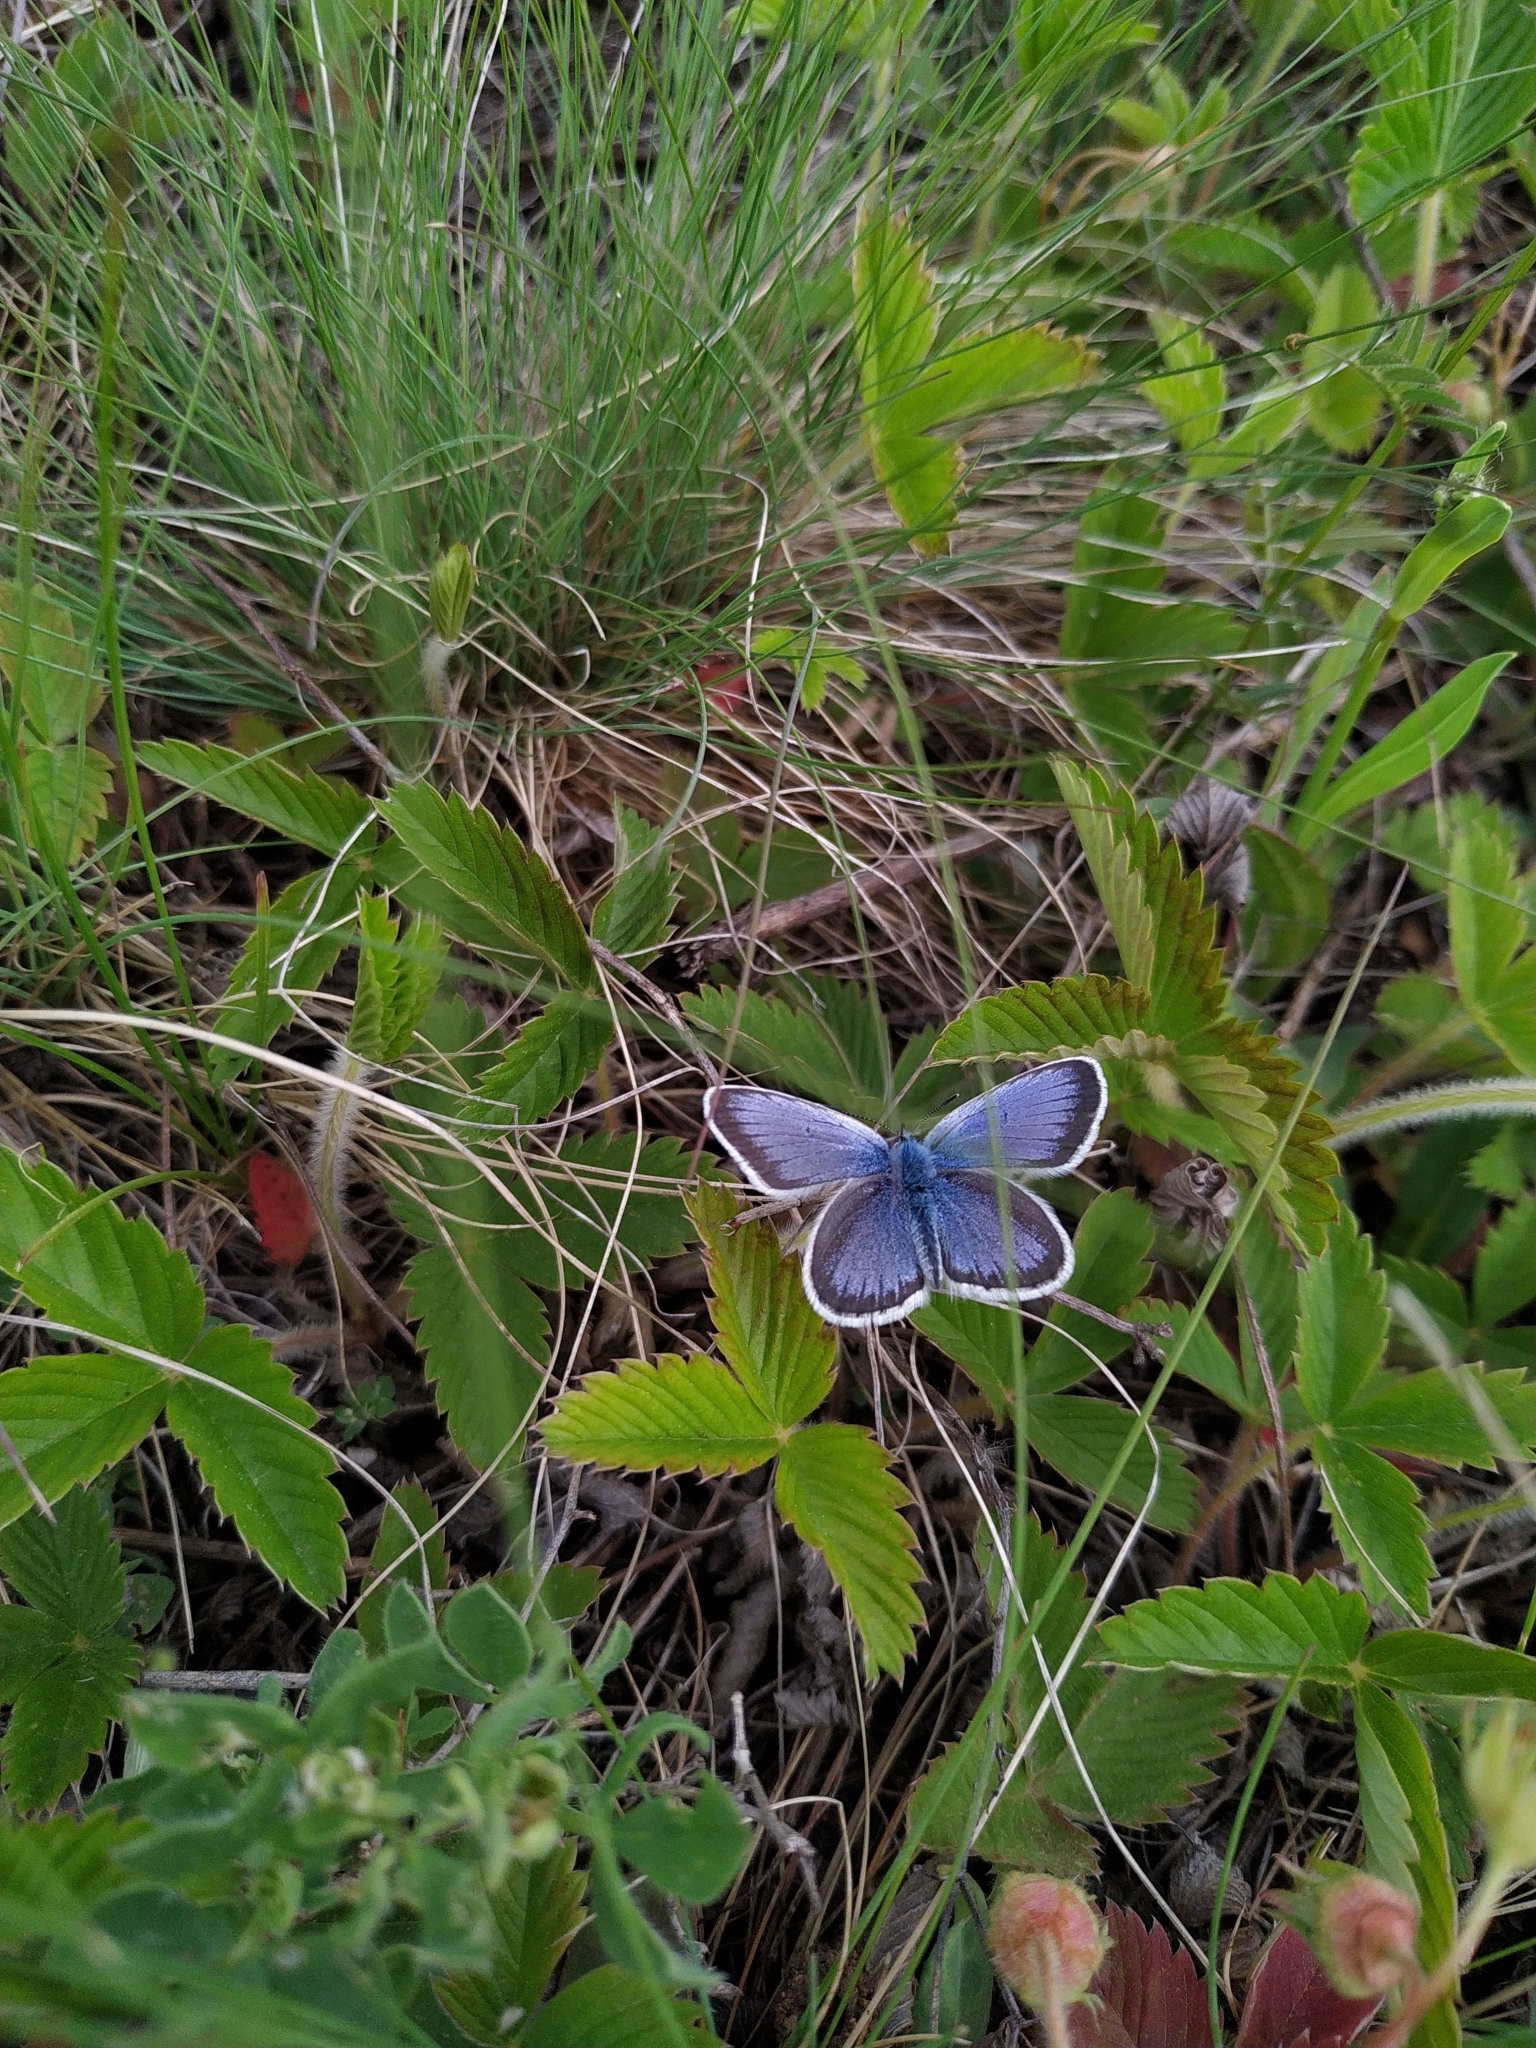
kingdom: Animalia
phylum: Arthropoda
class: Insecta
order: Lepidoptera
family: Lycaenidae
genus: Plebejus
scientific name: Plebejus argus
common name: Silver-studded blue
